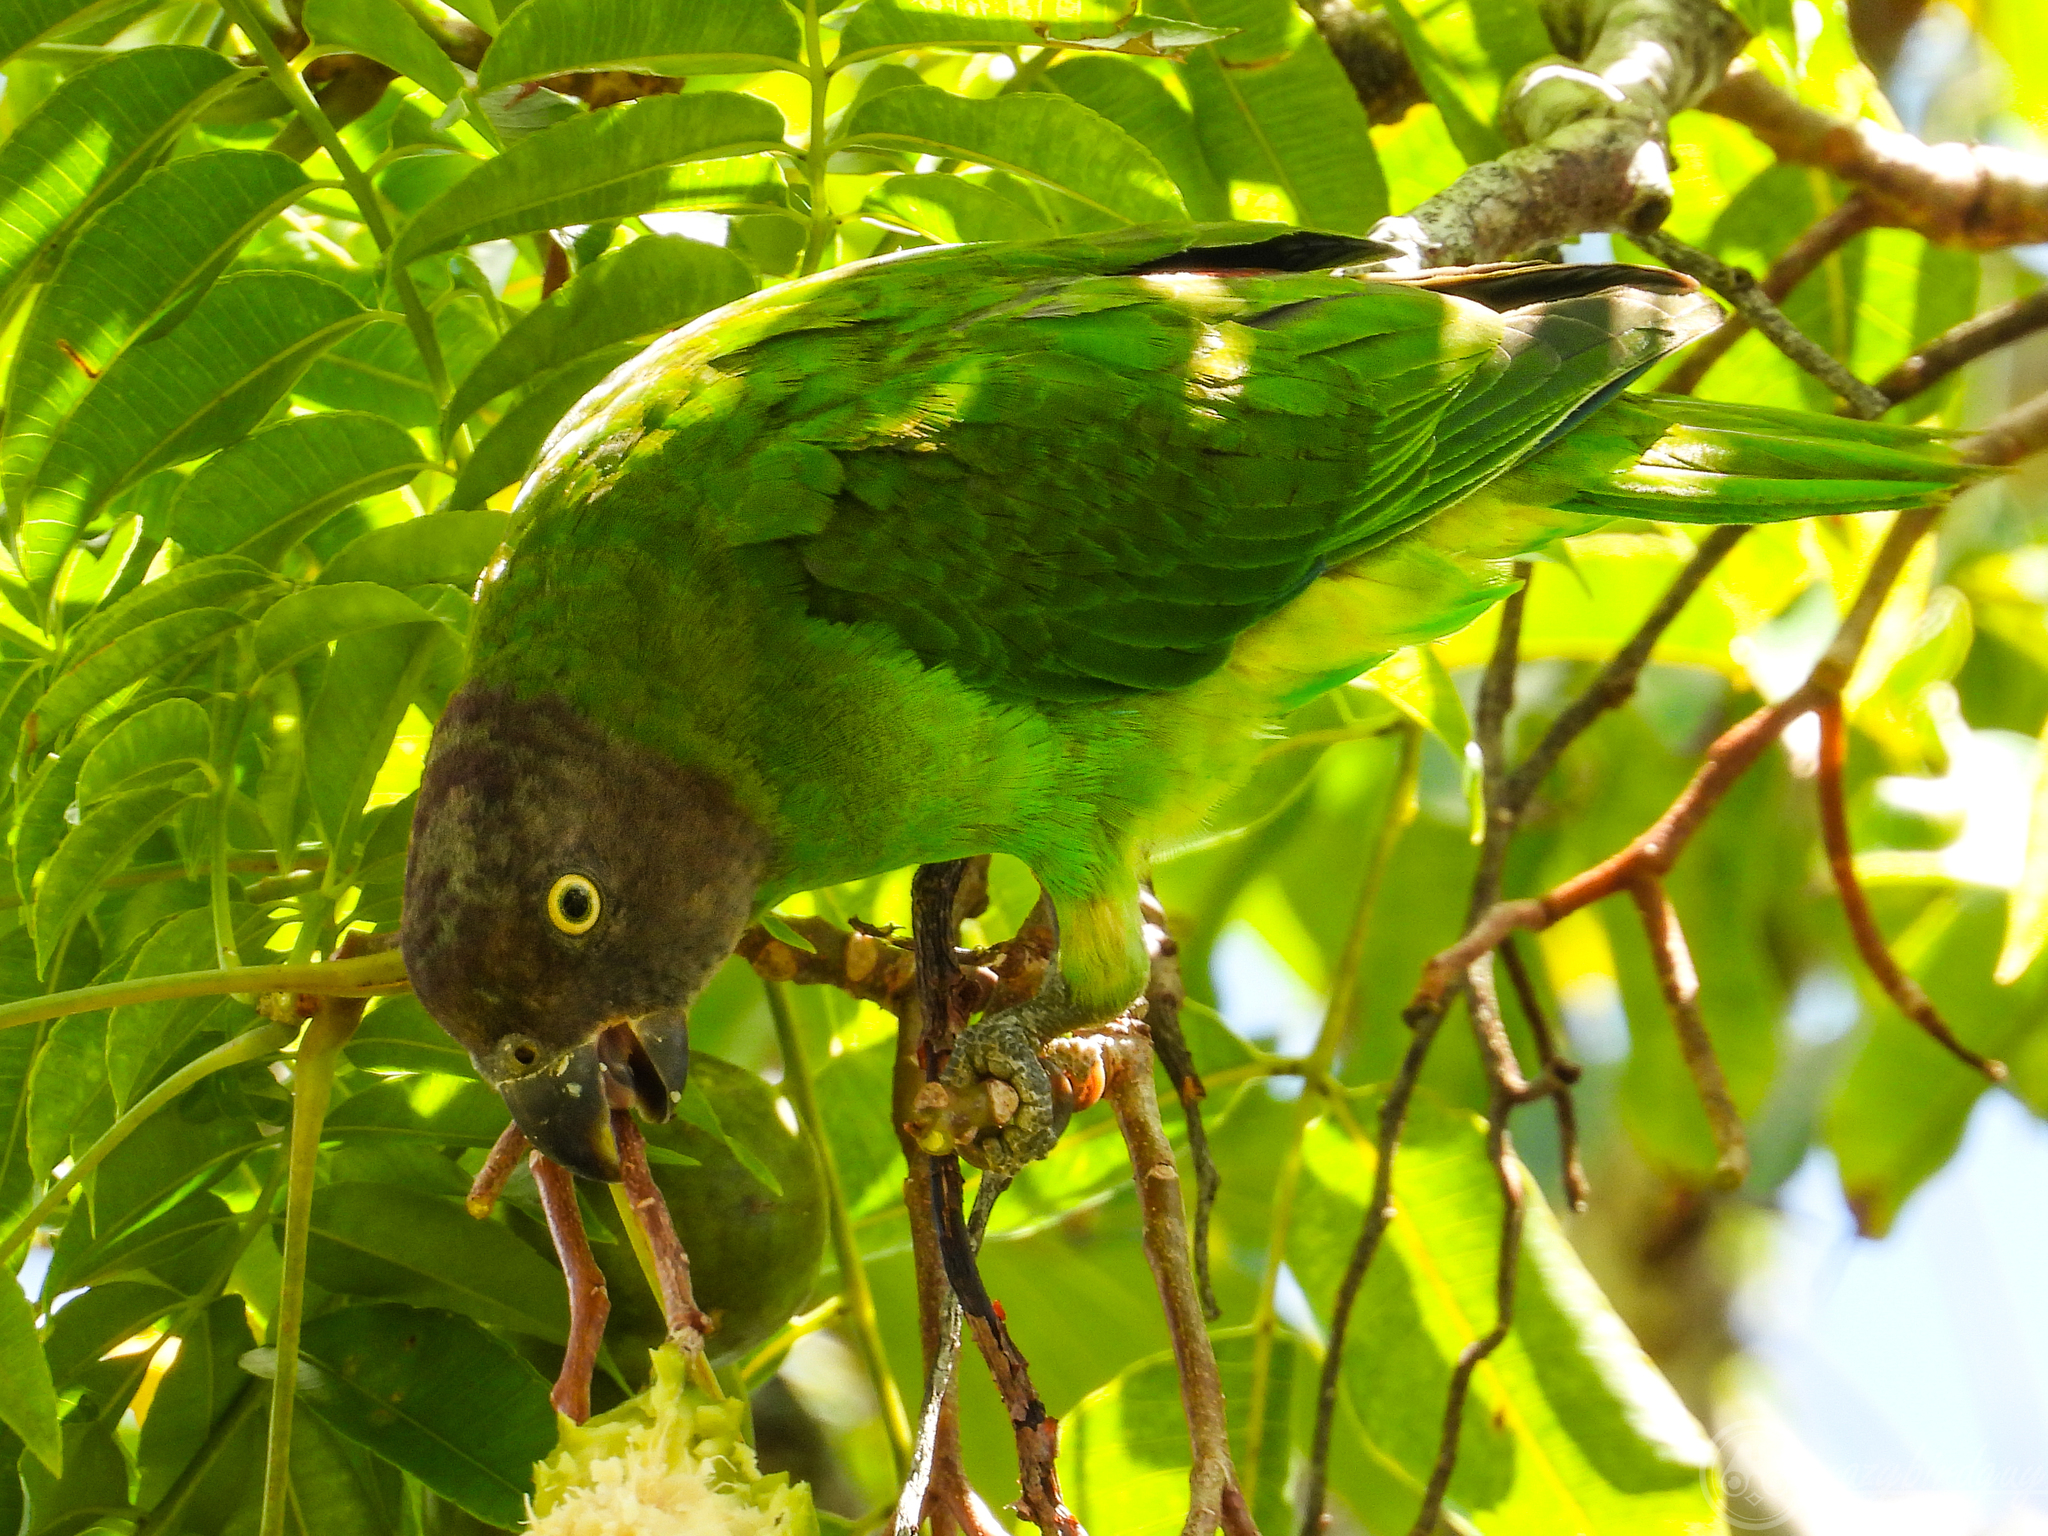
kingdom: Animalia
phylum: Chordata
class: Aves
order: Psittaciformes
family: Psittacidae
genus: Geoffroyus
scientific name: Geoffroyus geoffroyi
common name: Red-cheeked parrot
